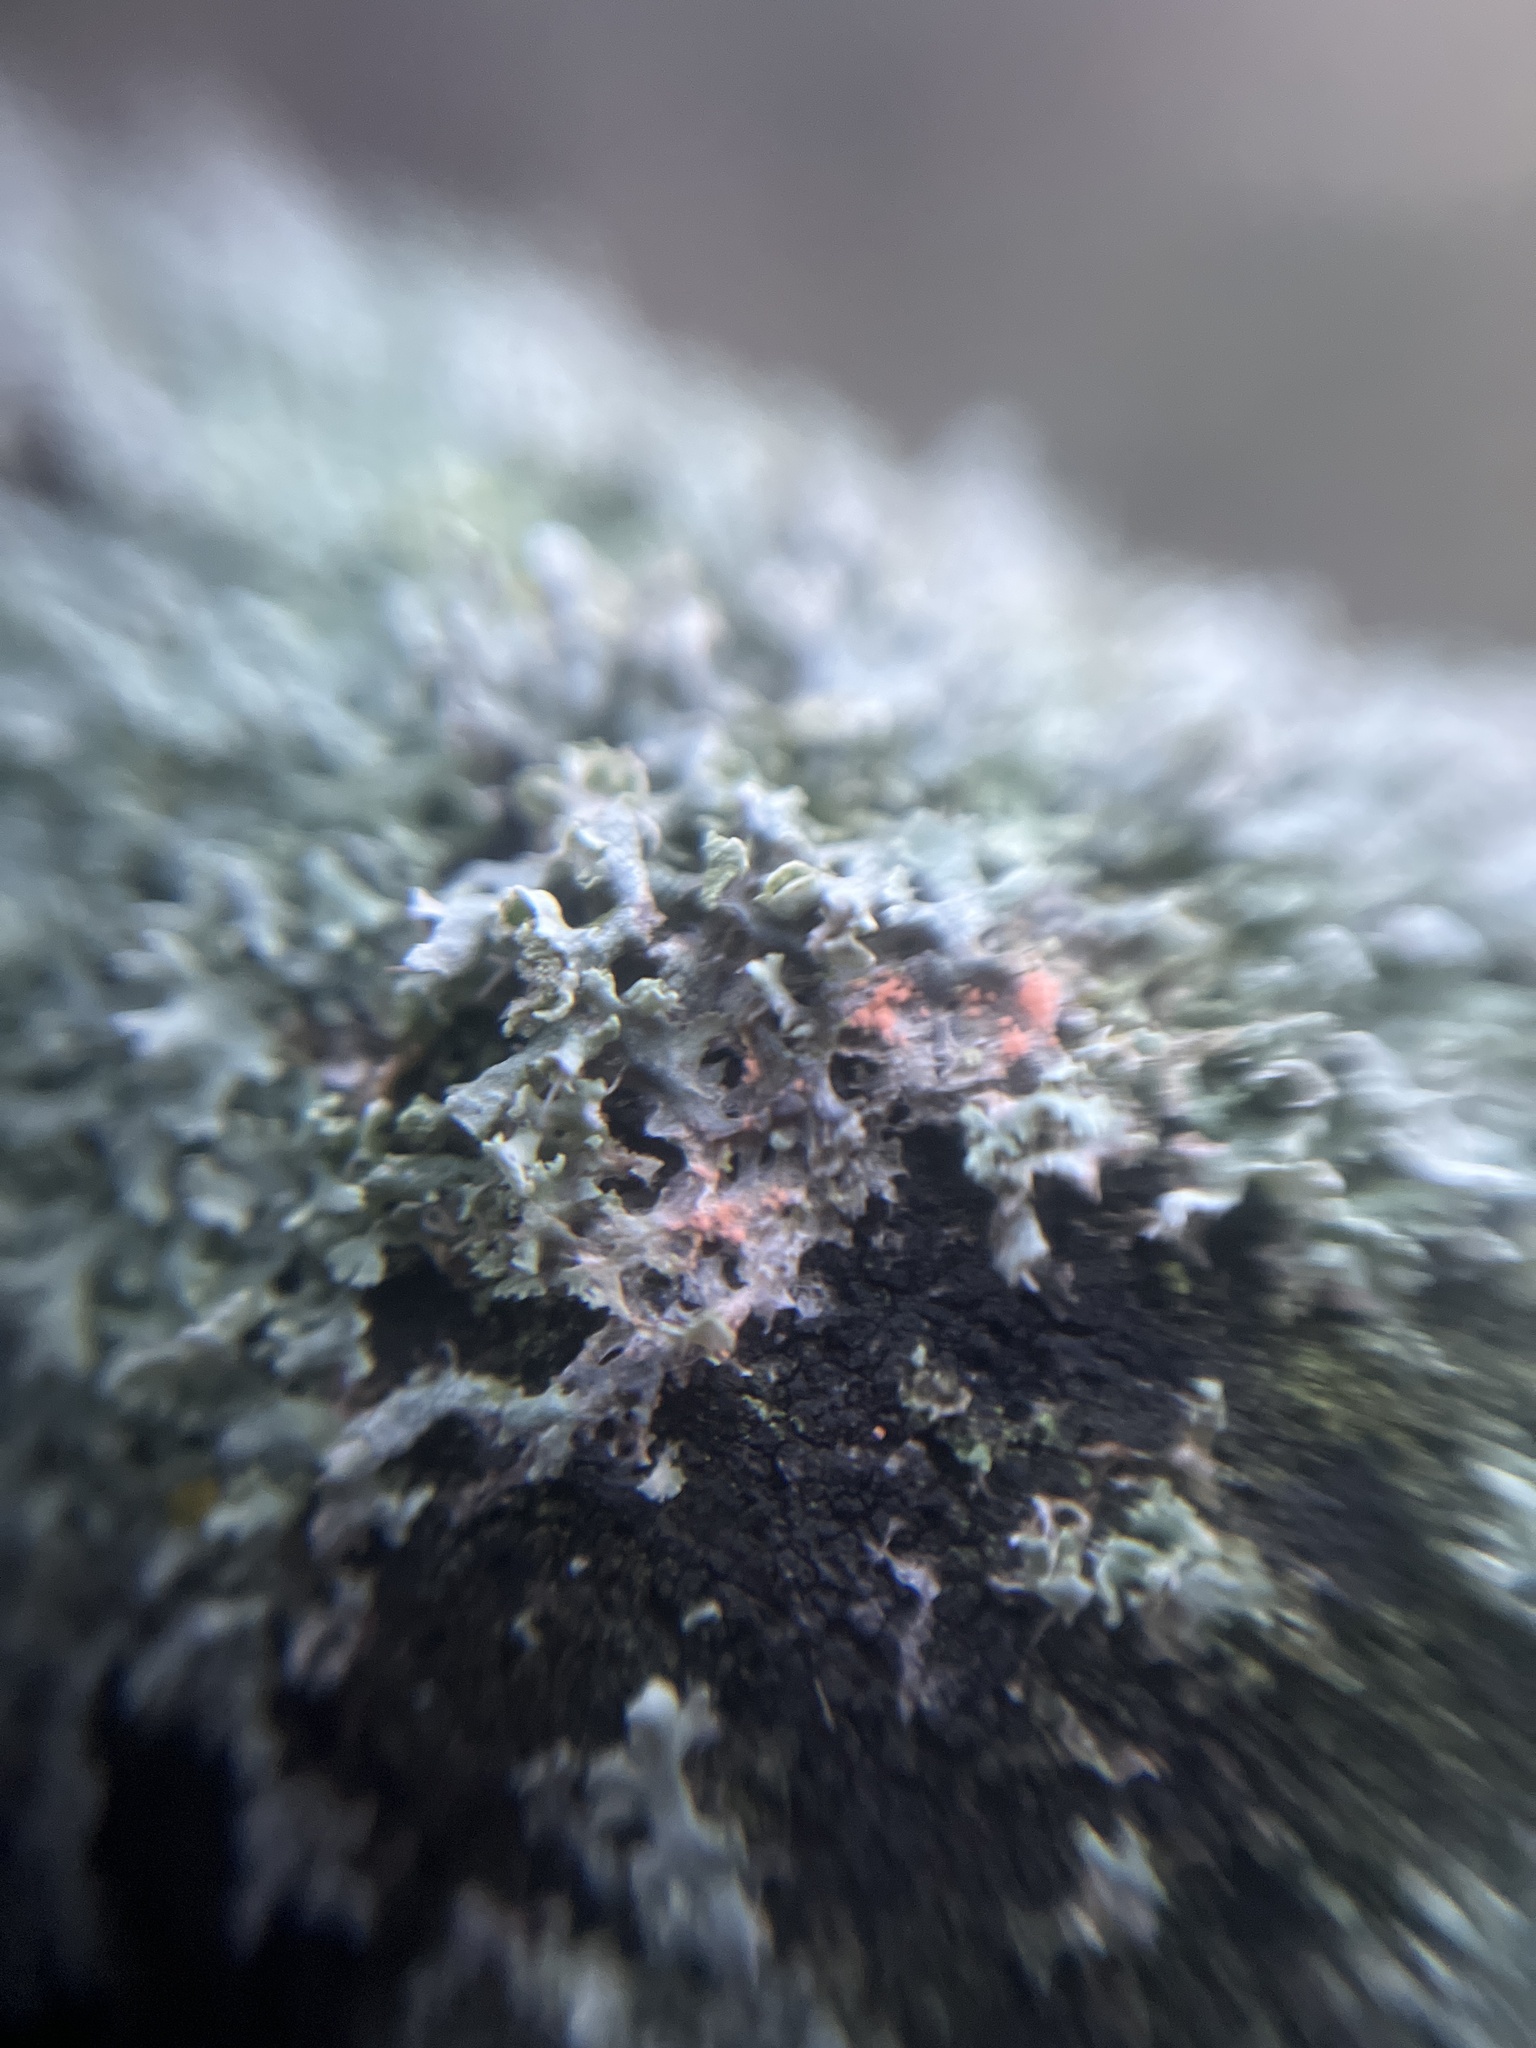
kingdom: Fungi
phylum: Basidiomycota
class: Agaricomycetes
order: Corticiales
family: Corticiaceae
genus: Erythricium
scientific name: Erythricium aurantiacum
